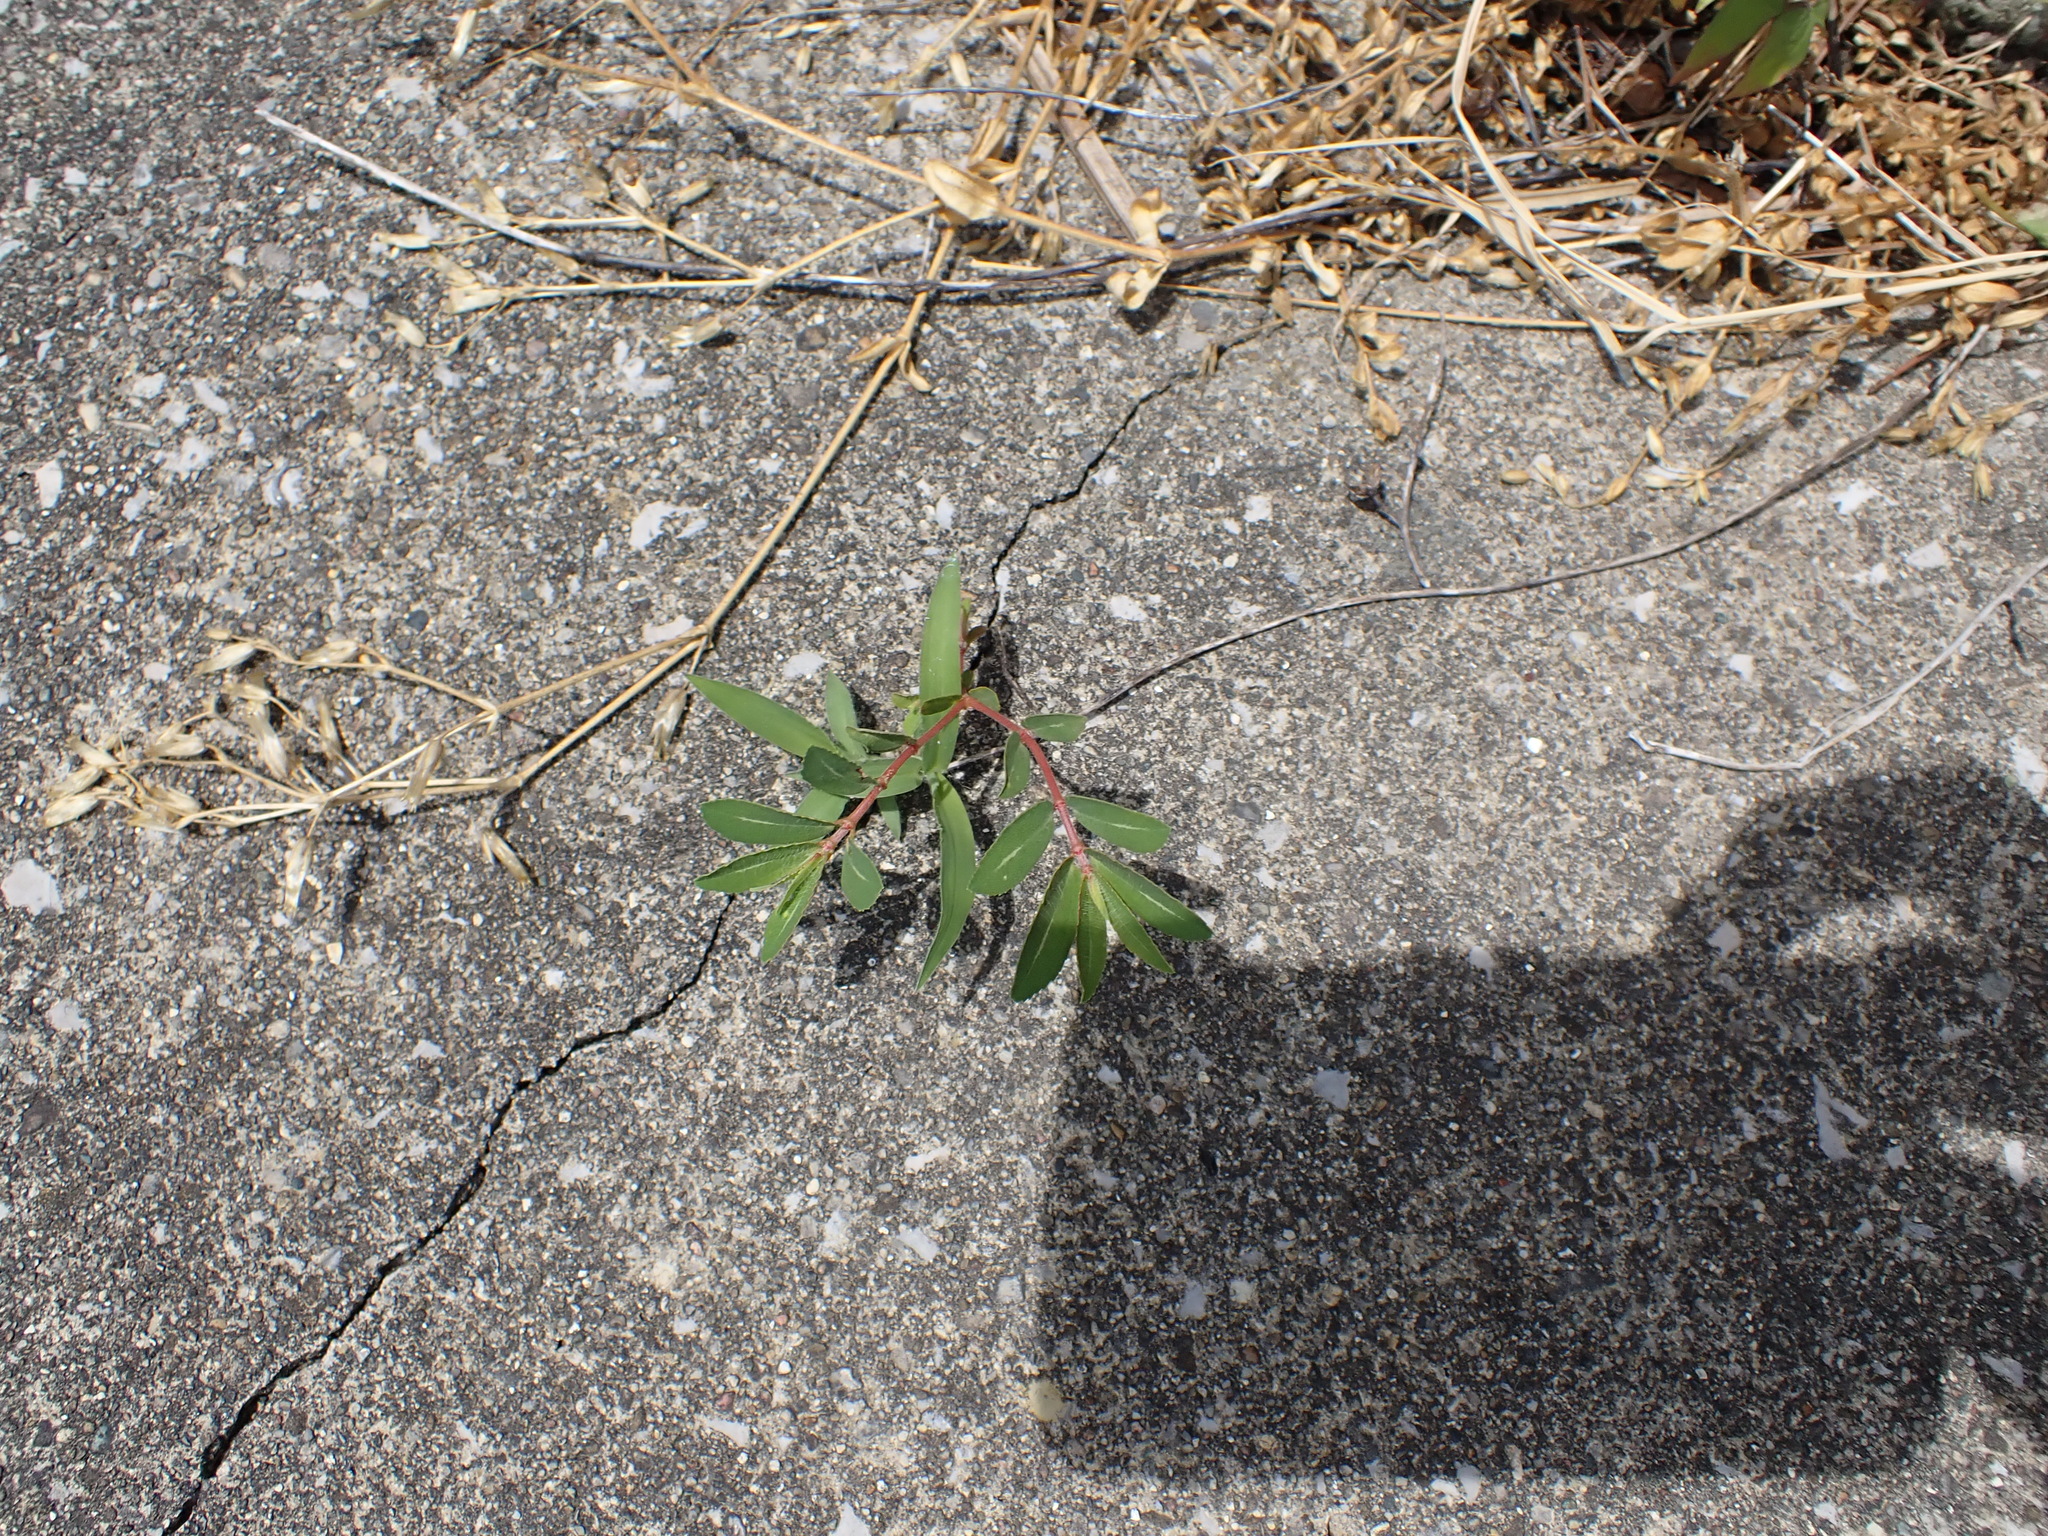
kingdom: Plantae
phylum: Tracheophyta
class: Magnoliopsida
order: Malpighiales
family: Euphorbiaceae
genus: Euphorbia
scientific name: Euphorbia nutans
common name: Eyebane
